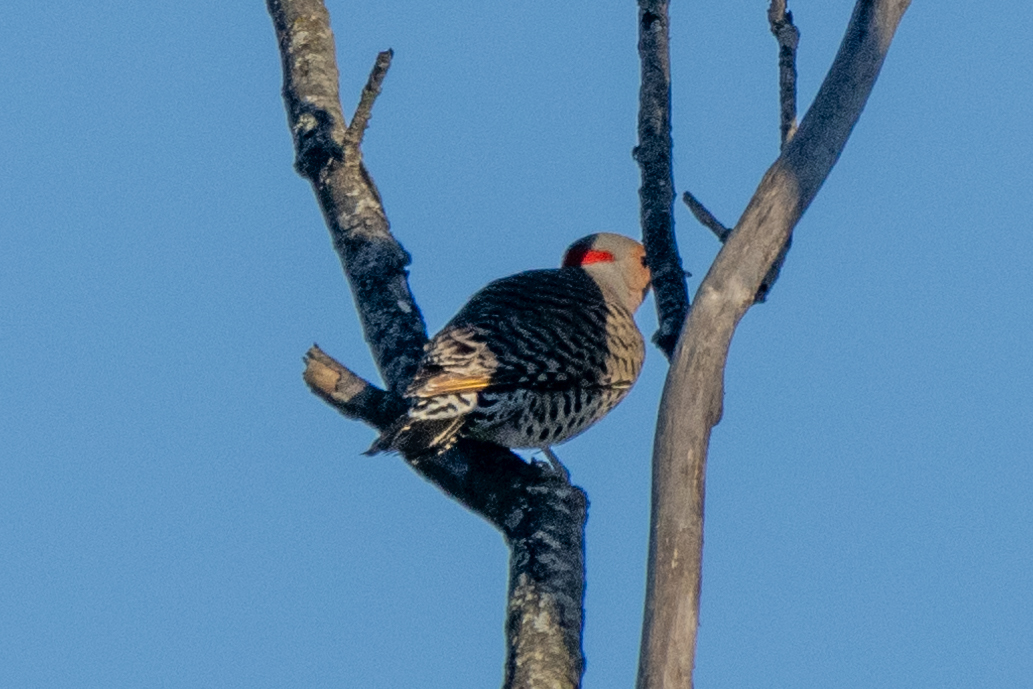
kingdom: Animalia
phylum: Chordata
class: Aves
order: Piciformes
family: Picidae
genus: Colaptes
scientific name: Colaptes auratus
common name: Northern flicker
